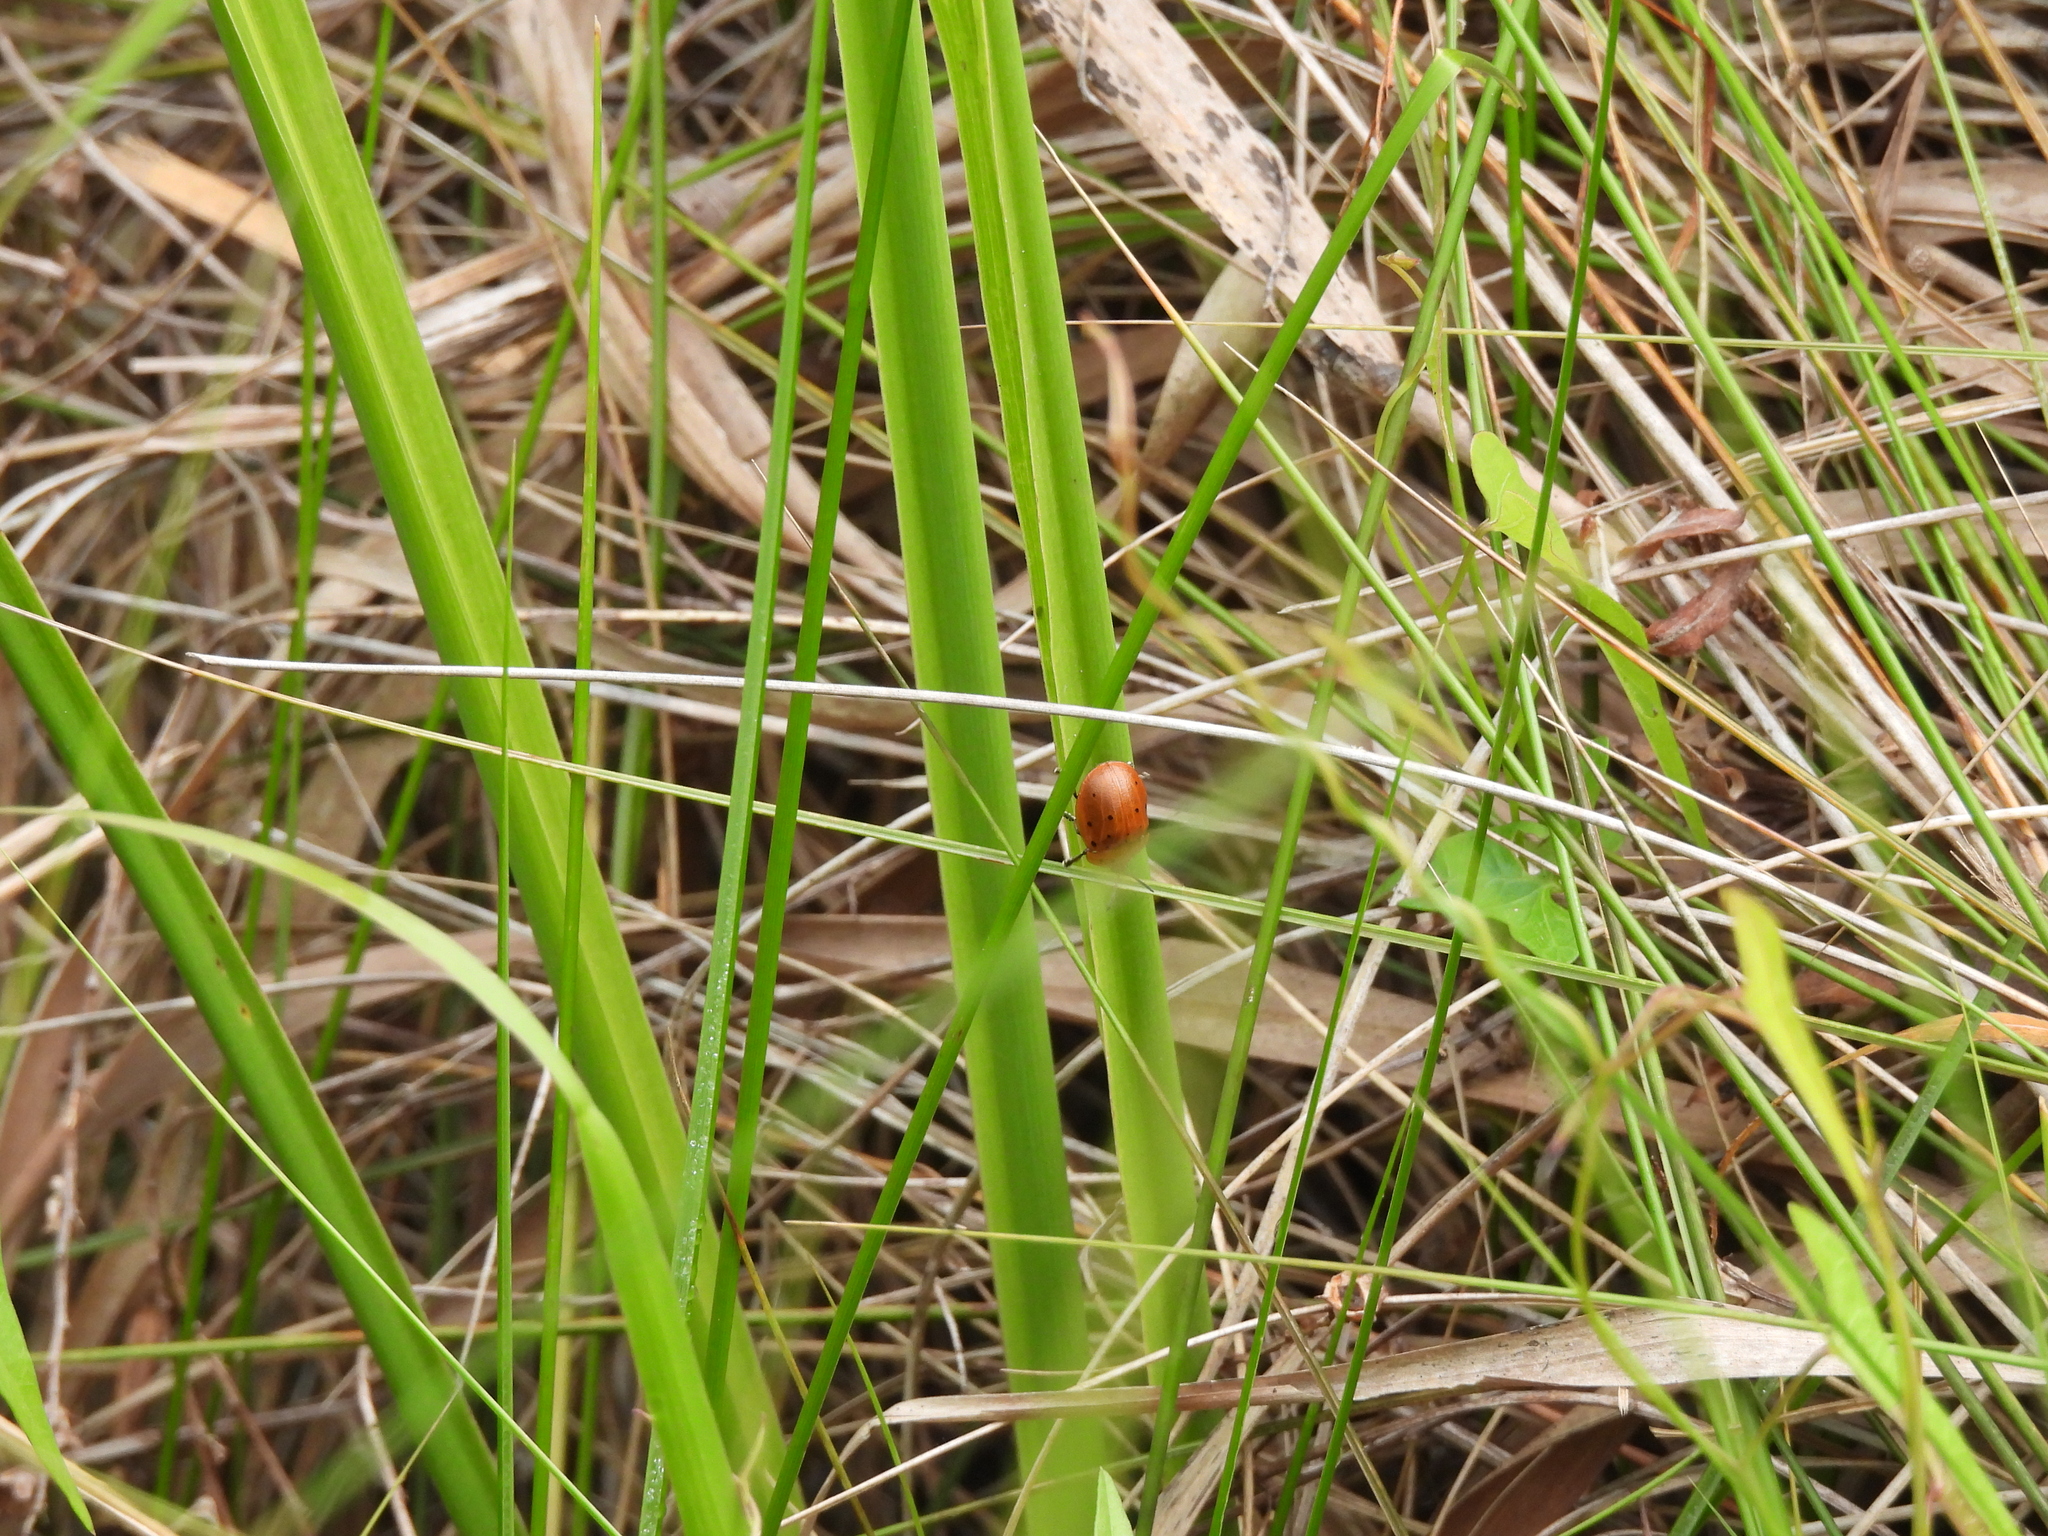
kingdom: Animalia
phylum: Arthropoda
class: Insecta
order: Coleoptera
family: Chrysomelidae
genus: Chelymorpha
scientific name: Chelymorpha cassidea
